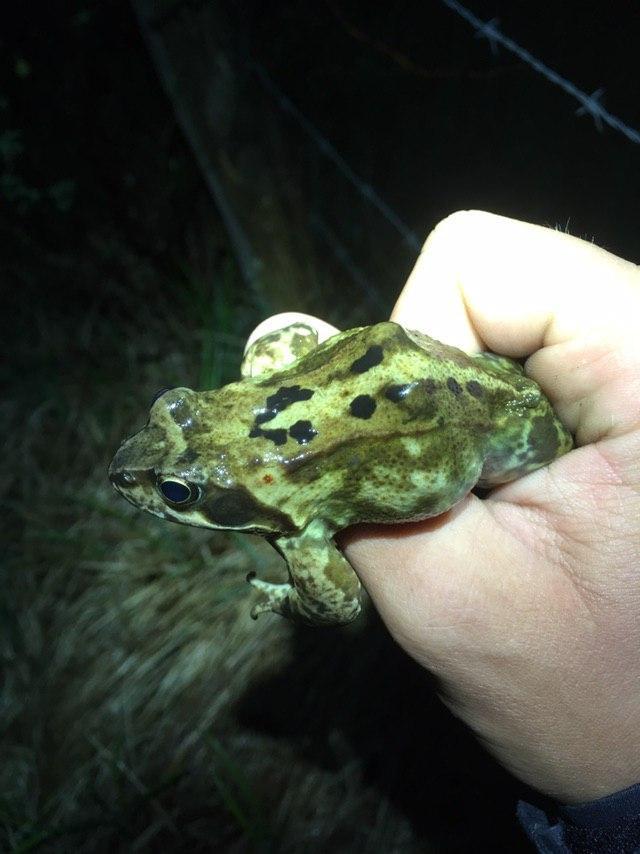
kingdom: Animalia
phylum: Chordata
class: Amphibia
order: Anura
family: Ranidae
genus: Rana
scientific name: Rana temporaria
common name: Common frog
